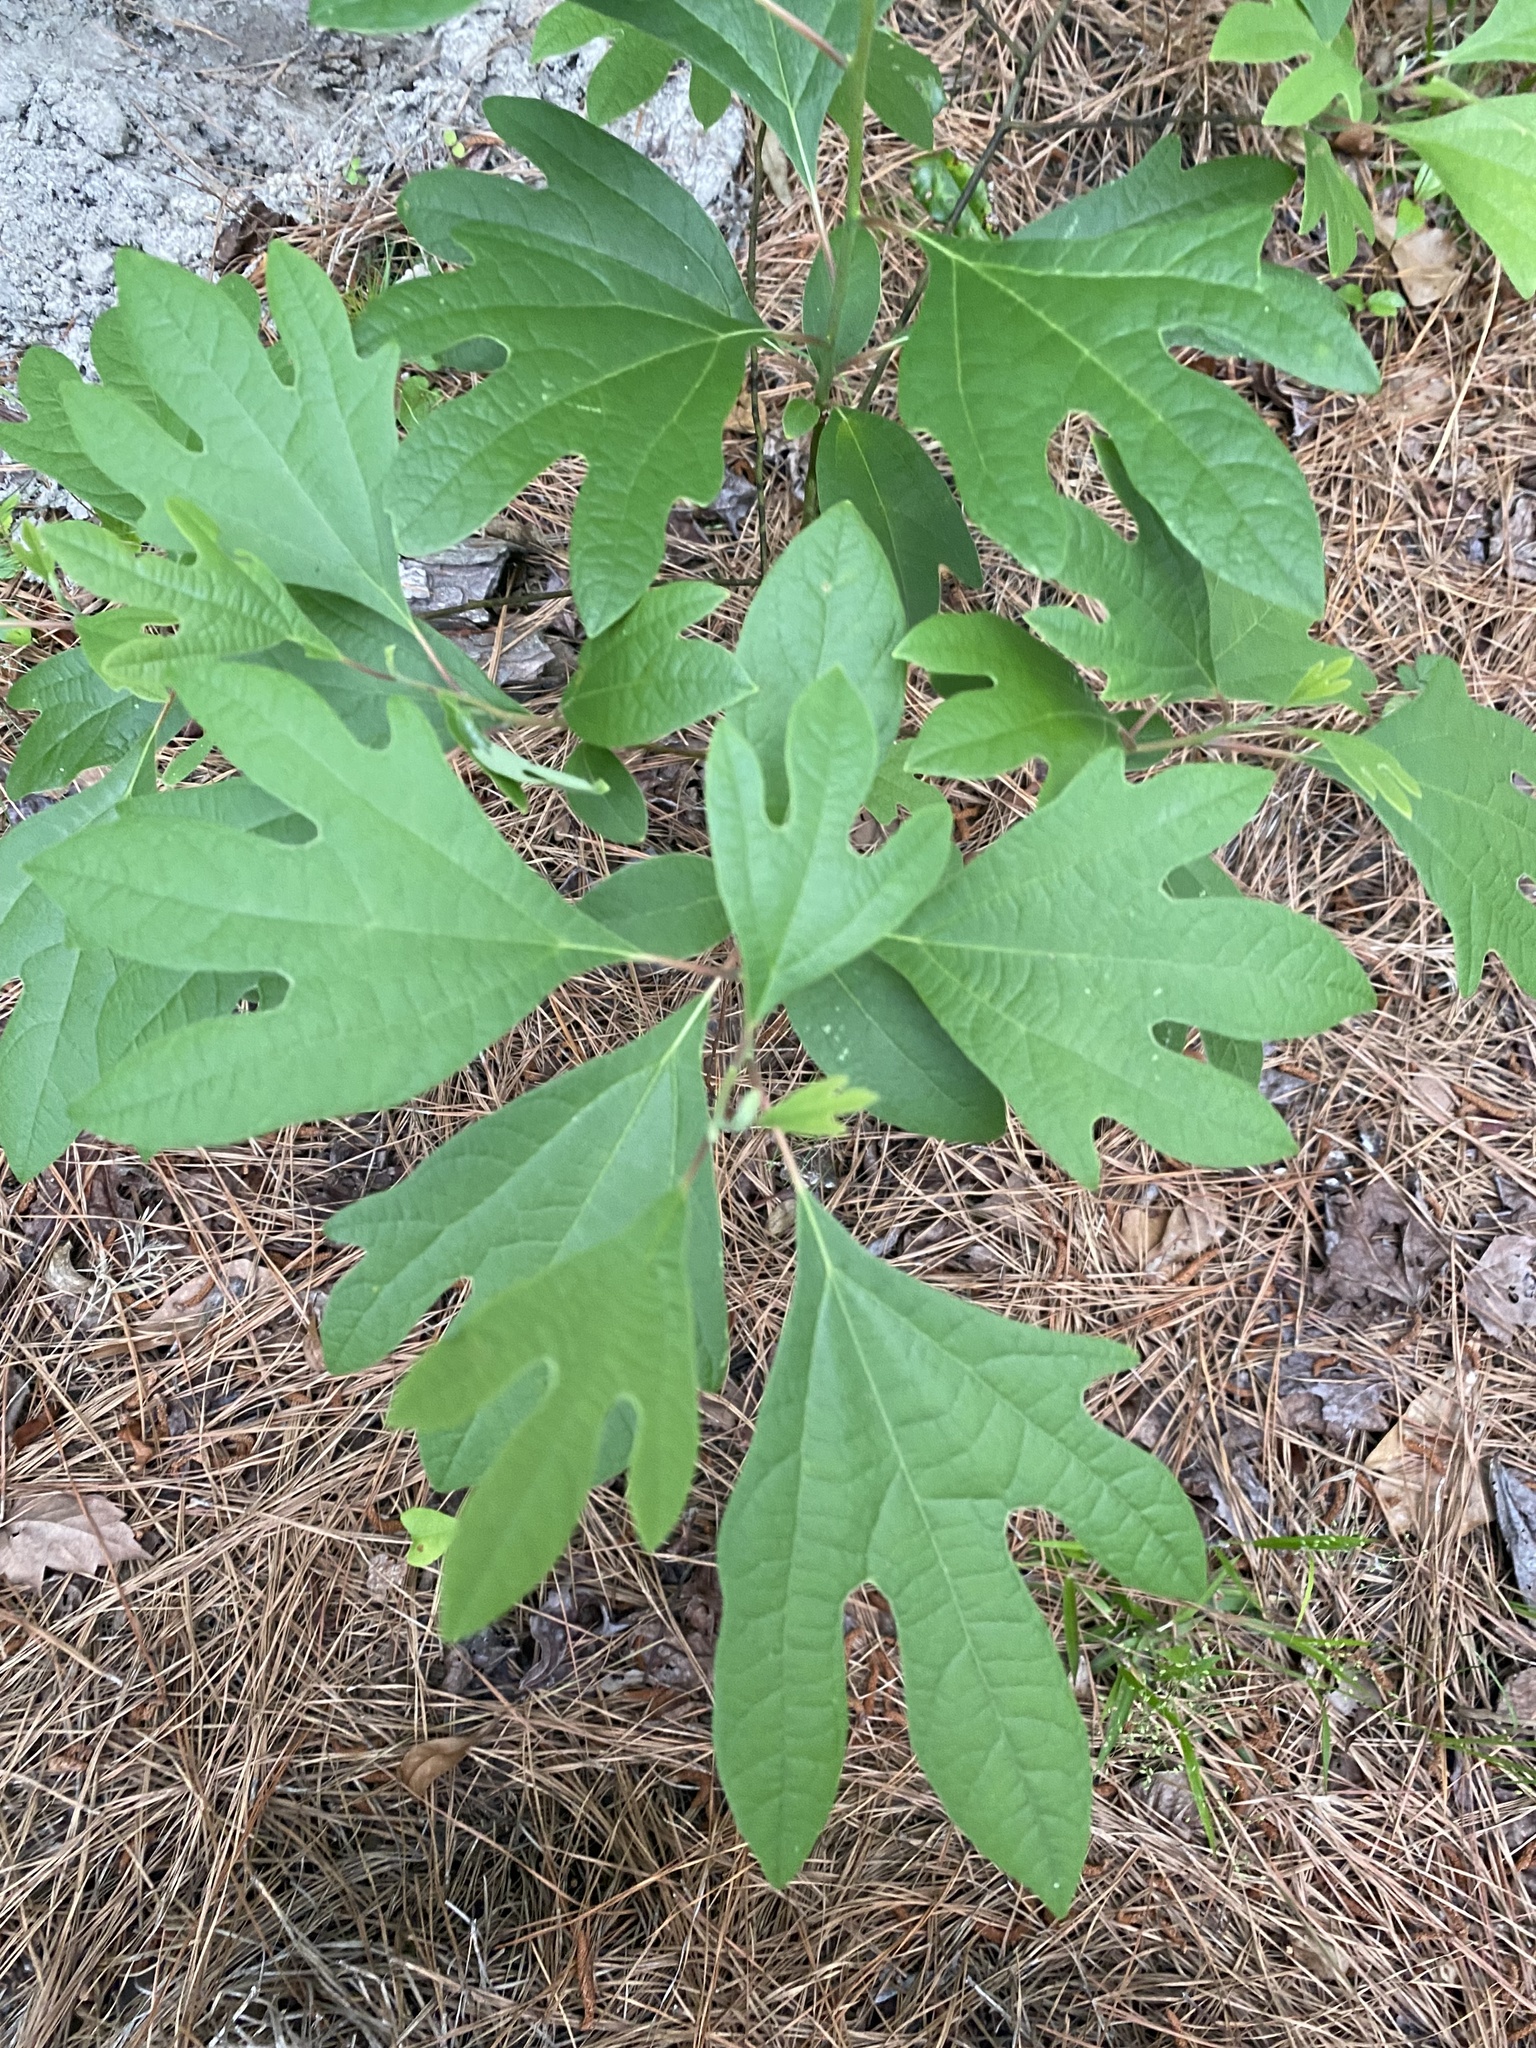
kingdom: Plantae
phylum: Tracheophyta
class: Magnoliopsida
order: Laurales
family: Lauraceae
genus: Sassafras
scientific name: Sassafras albidum
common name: Sassafras
